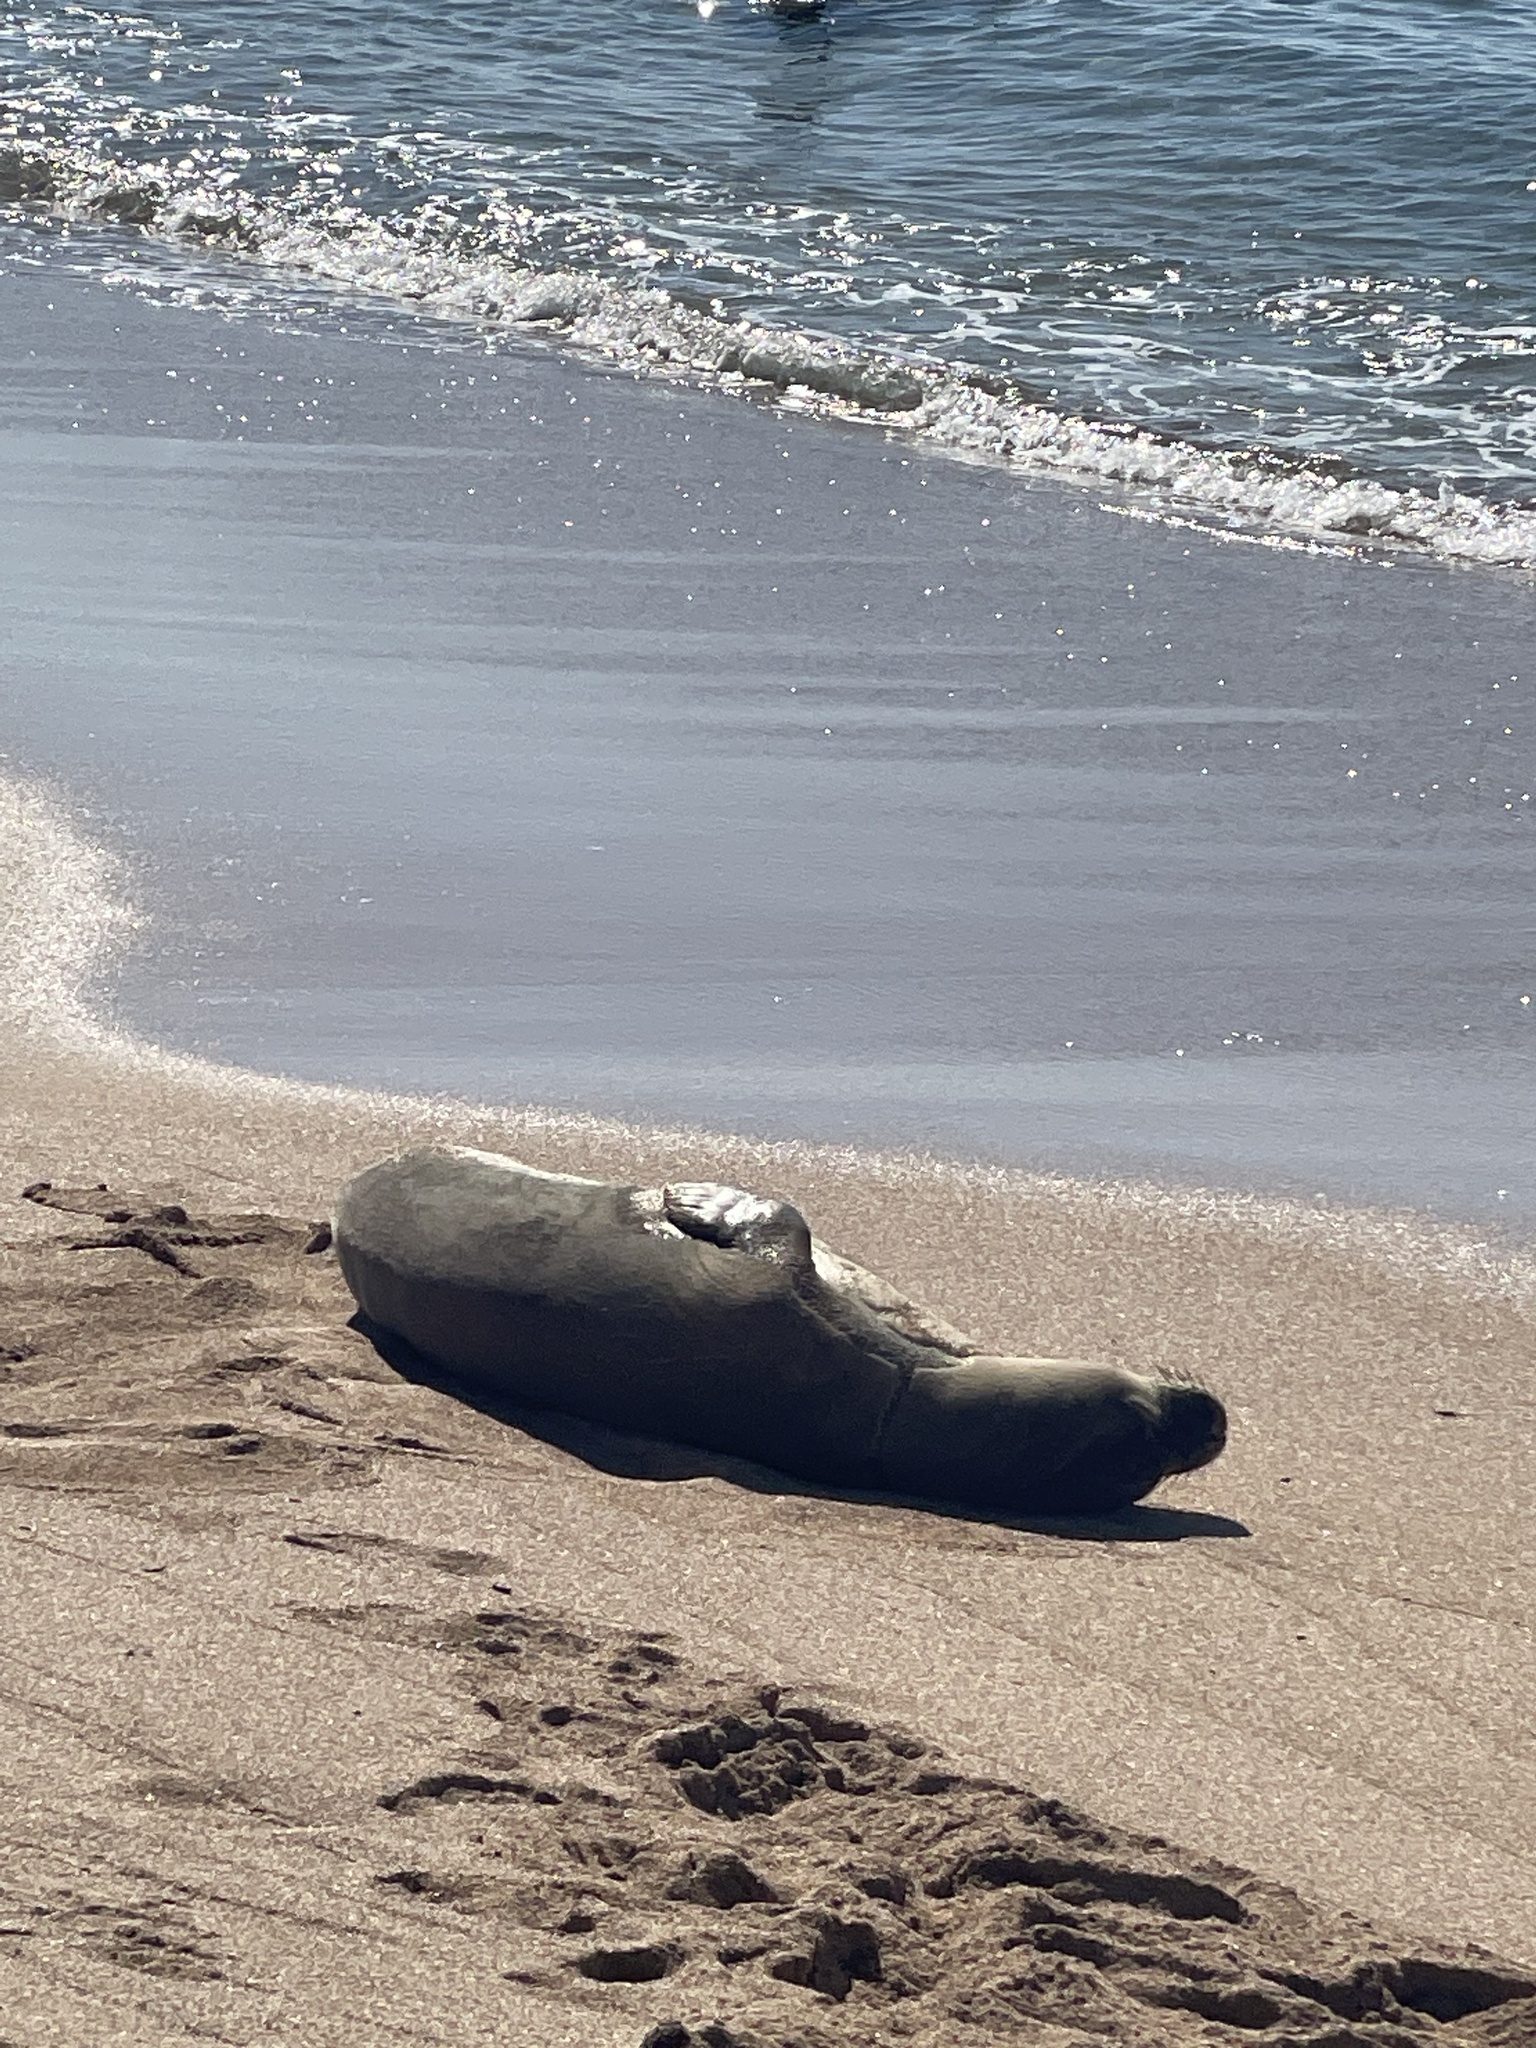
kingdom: Animalia
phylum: Chordata
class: Mammalia
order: Carnivora
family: Phocidae
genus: Neomonachus
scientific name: Neomonachus schauinslandi
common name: Hawaiian monk seal
